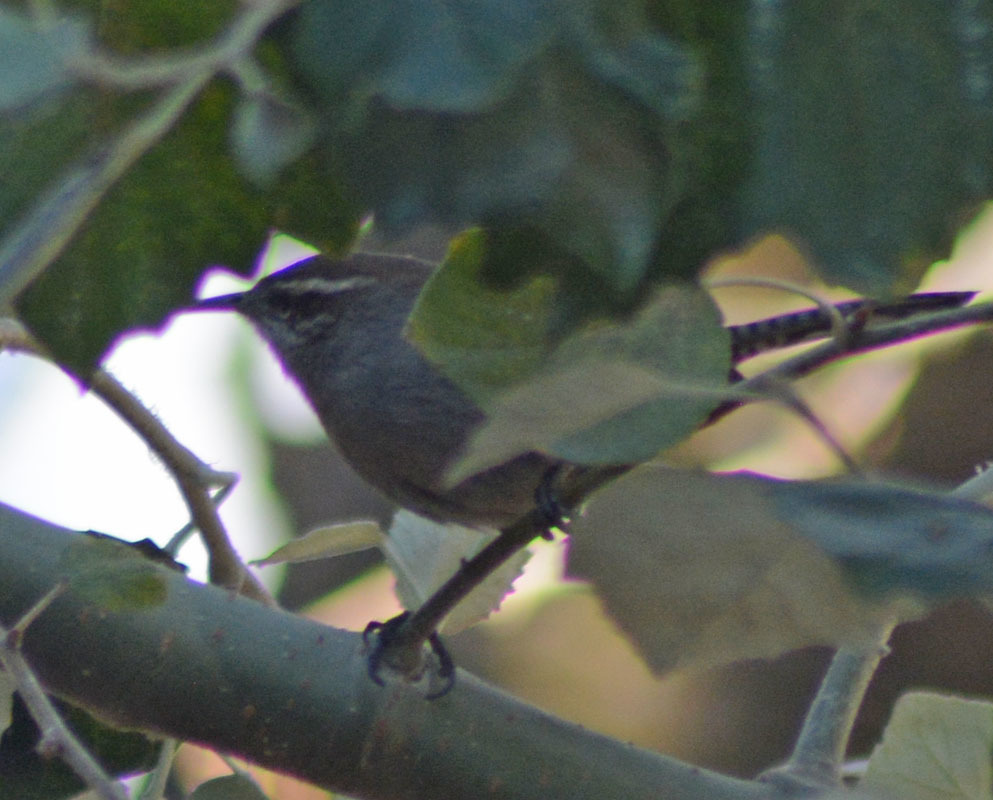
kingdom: Animalia
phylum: Chordata
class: Aves
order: Passeriformes
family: Troglodytidae
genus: Thryomanes
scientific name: Thryomanes bewickii
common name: Bewick's wren
